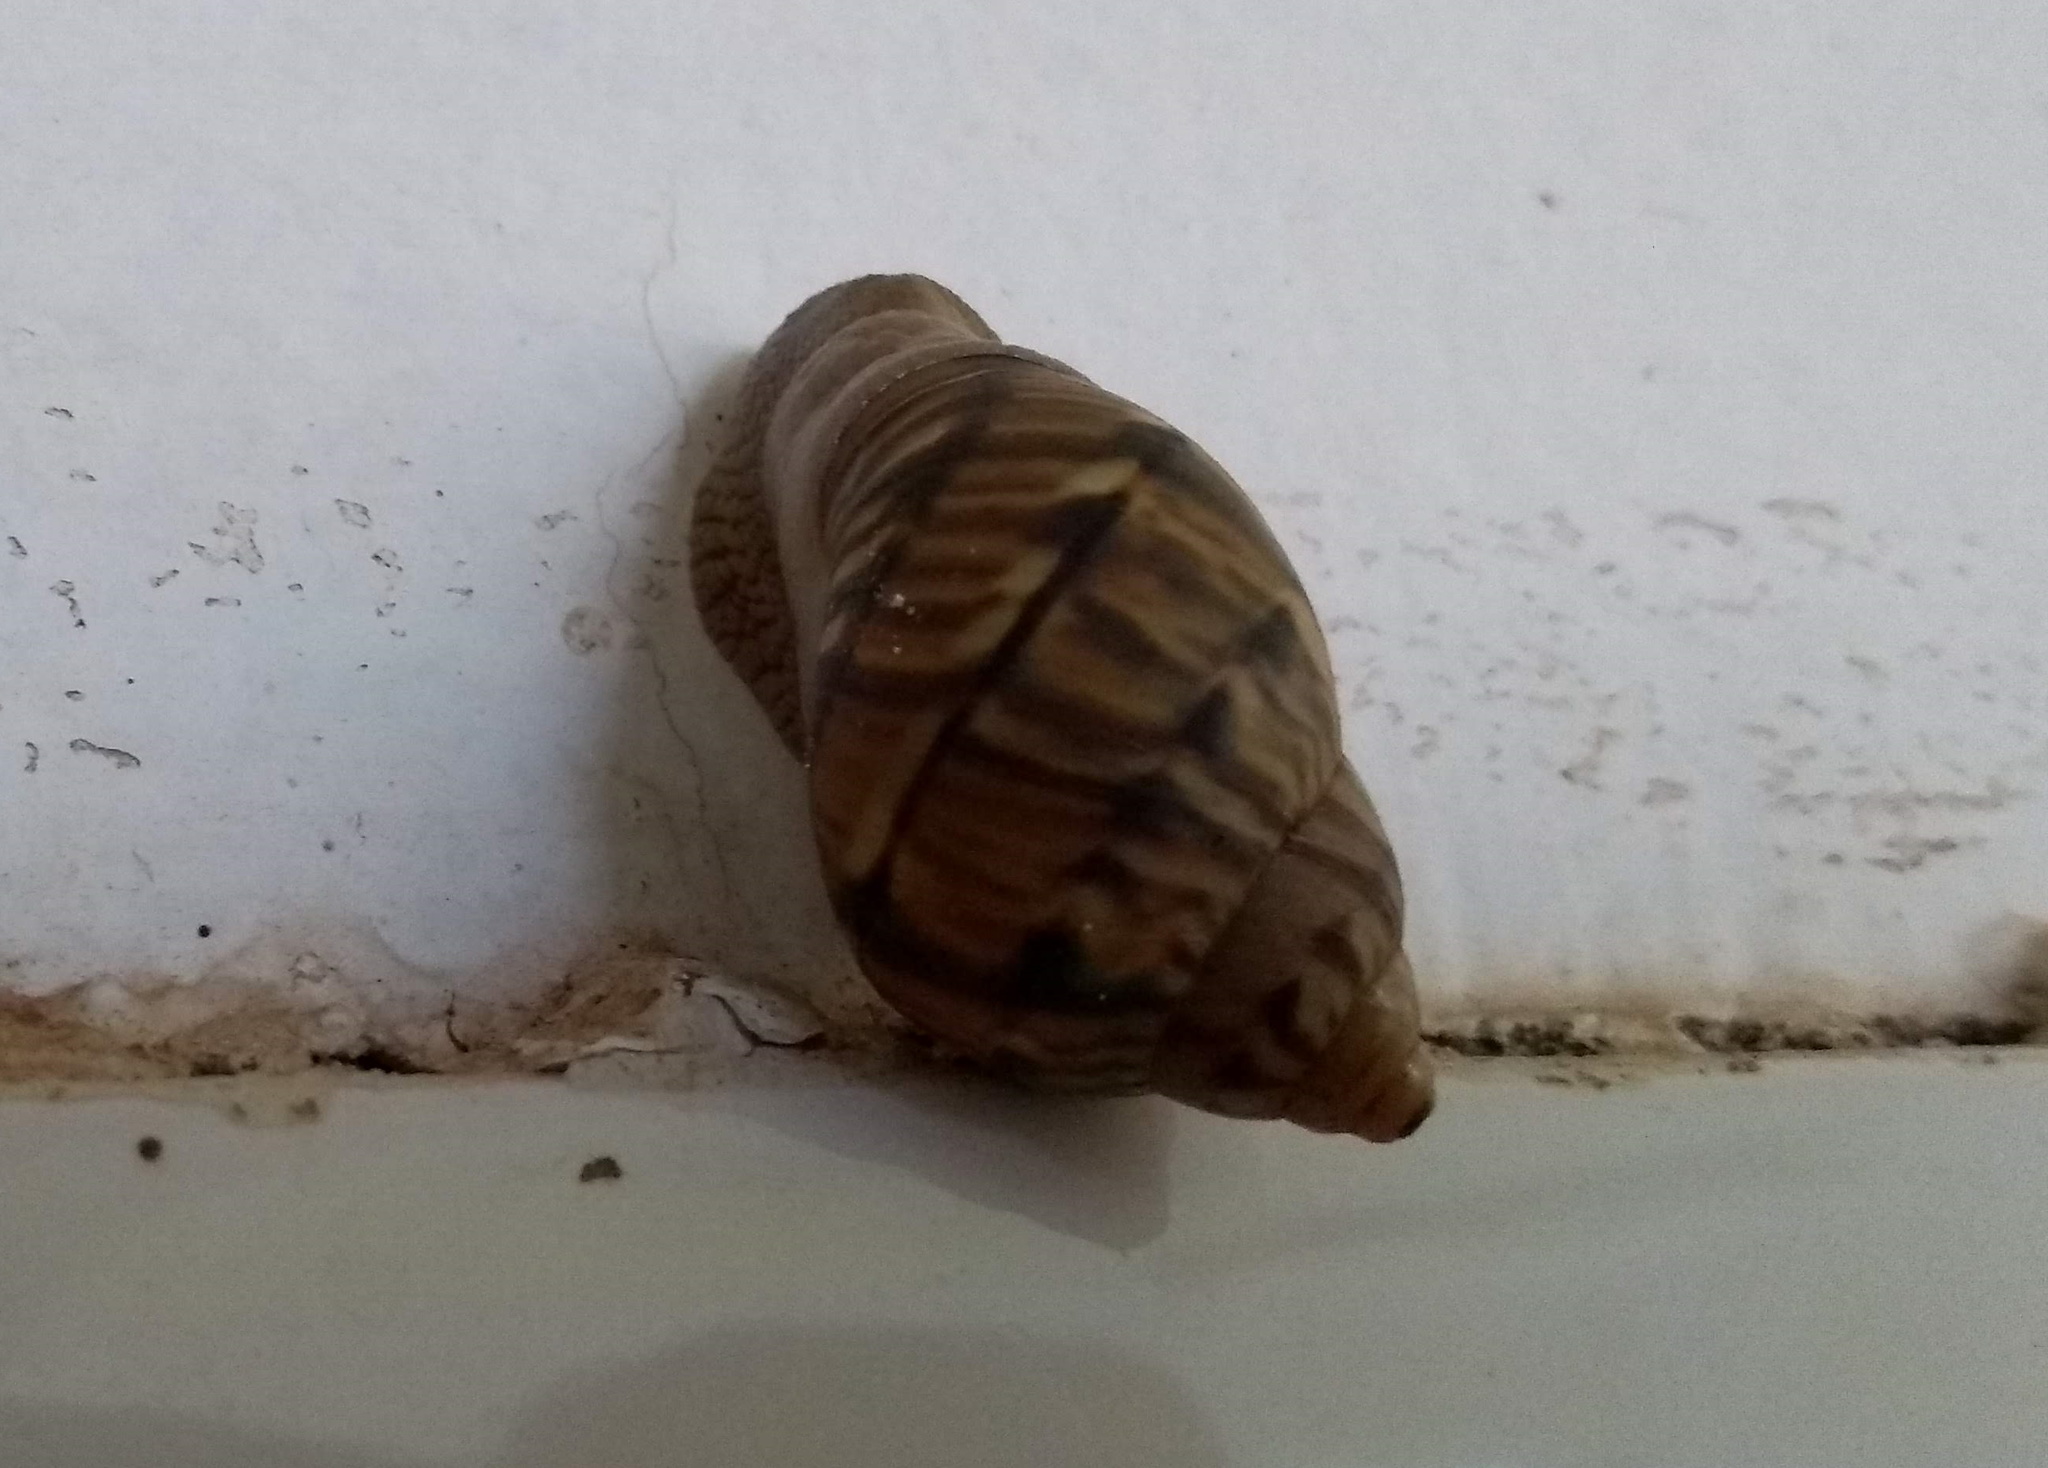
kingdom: Animalia
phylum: Mollusca
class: Gastropoda
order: Stylommatophora
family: Orthalicidae
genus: Orthalicus
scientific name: Orthalicus pulchellus
